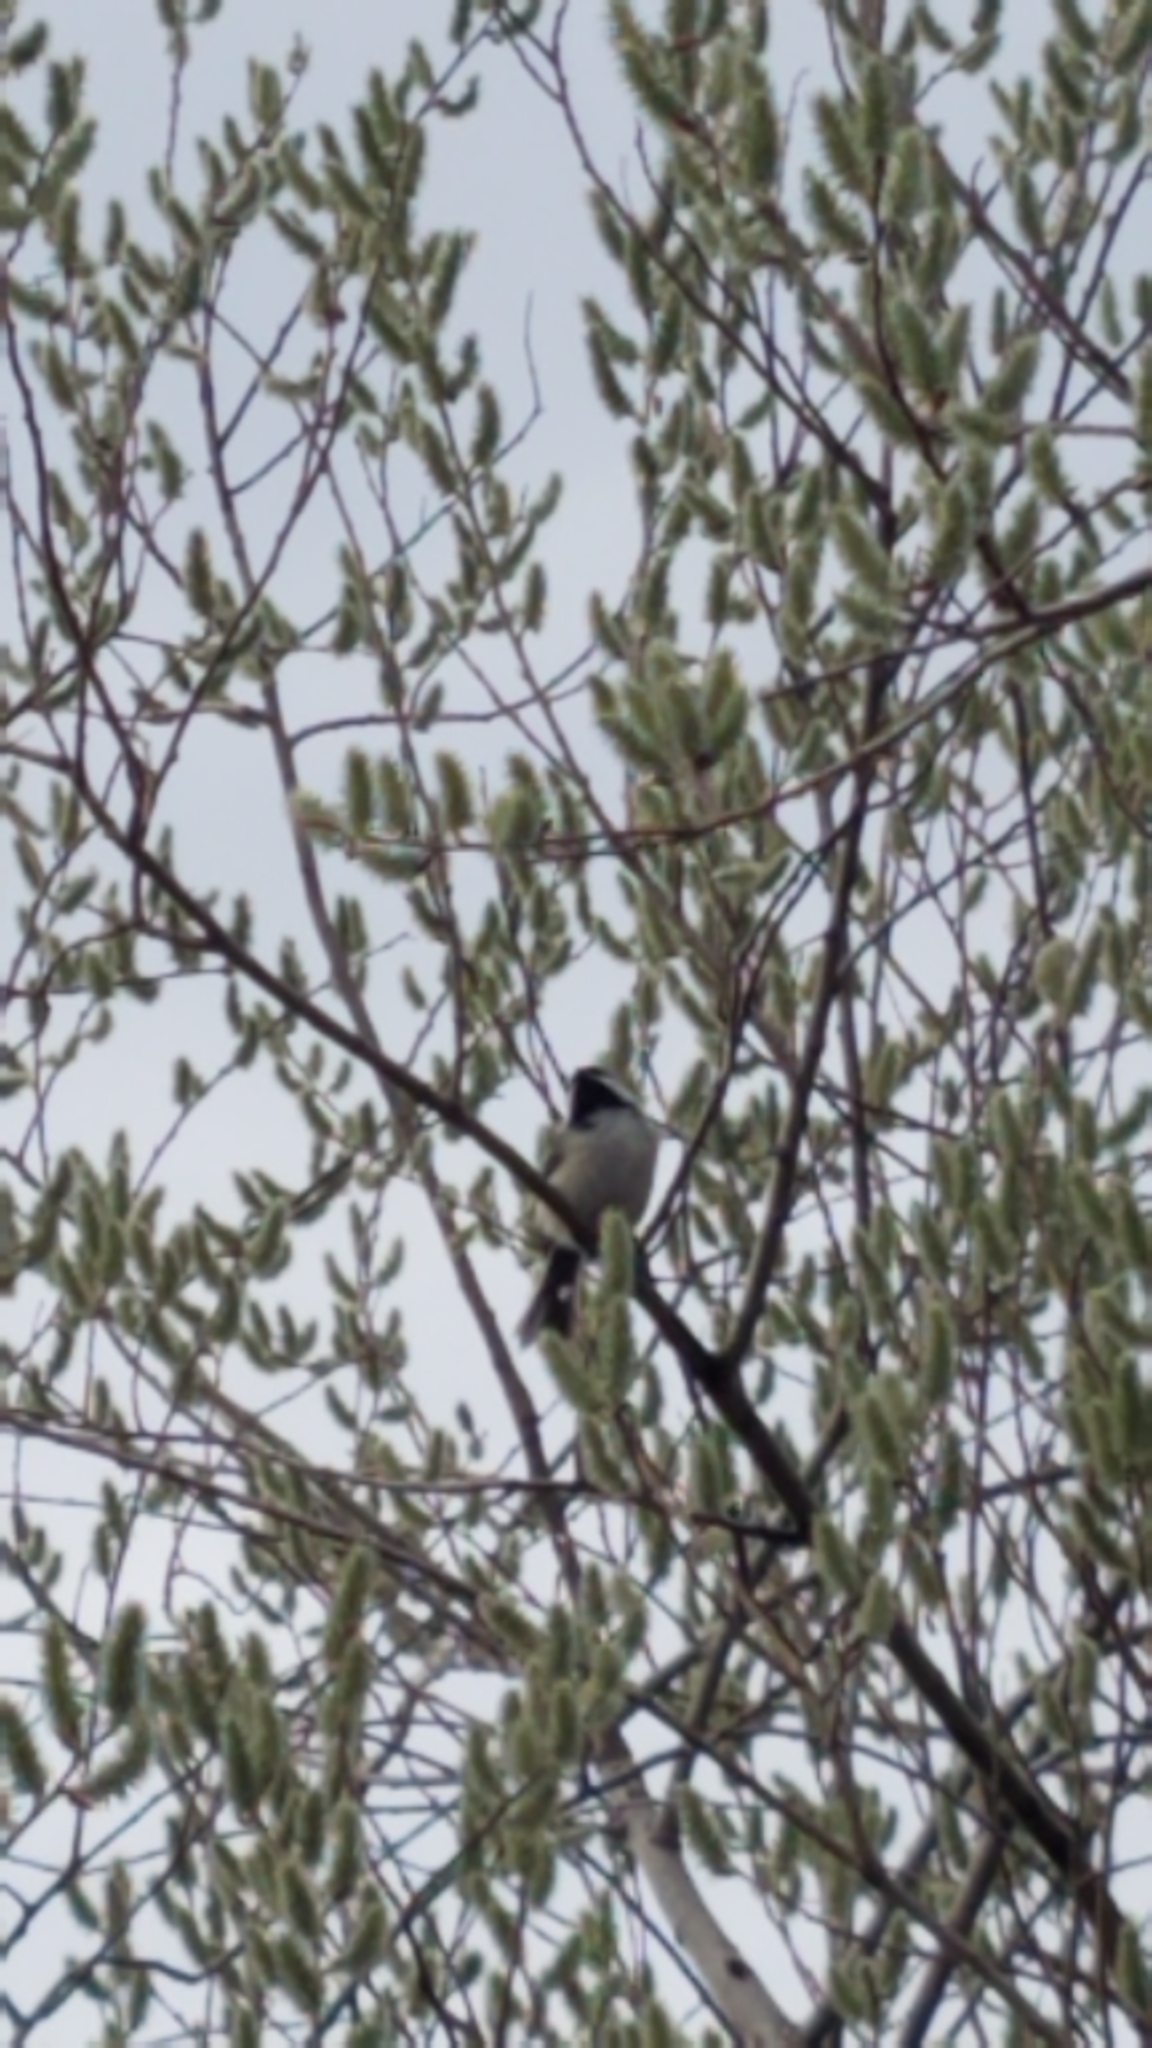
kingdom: Animalia
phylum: Chordata
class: Aves
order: Passeriformes
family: Paridae
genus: Poecile
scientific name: Poecile atricapillus
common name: Black-capped chickadee
